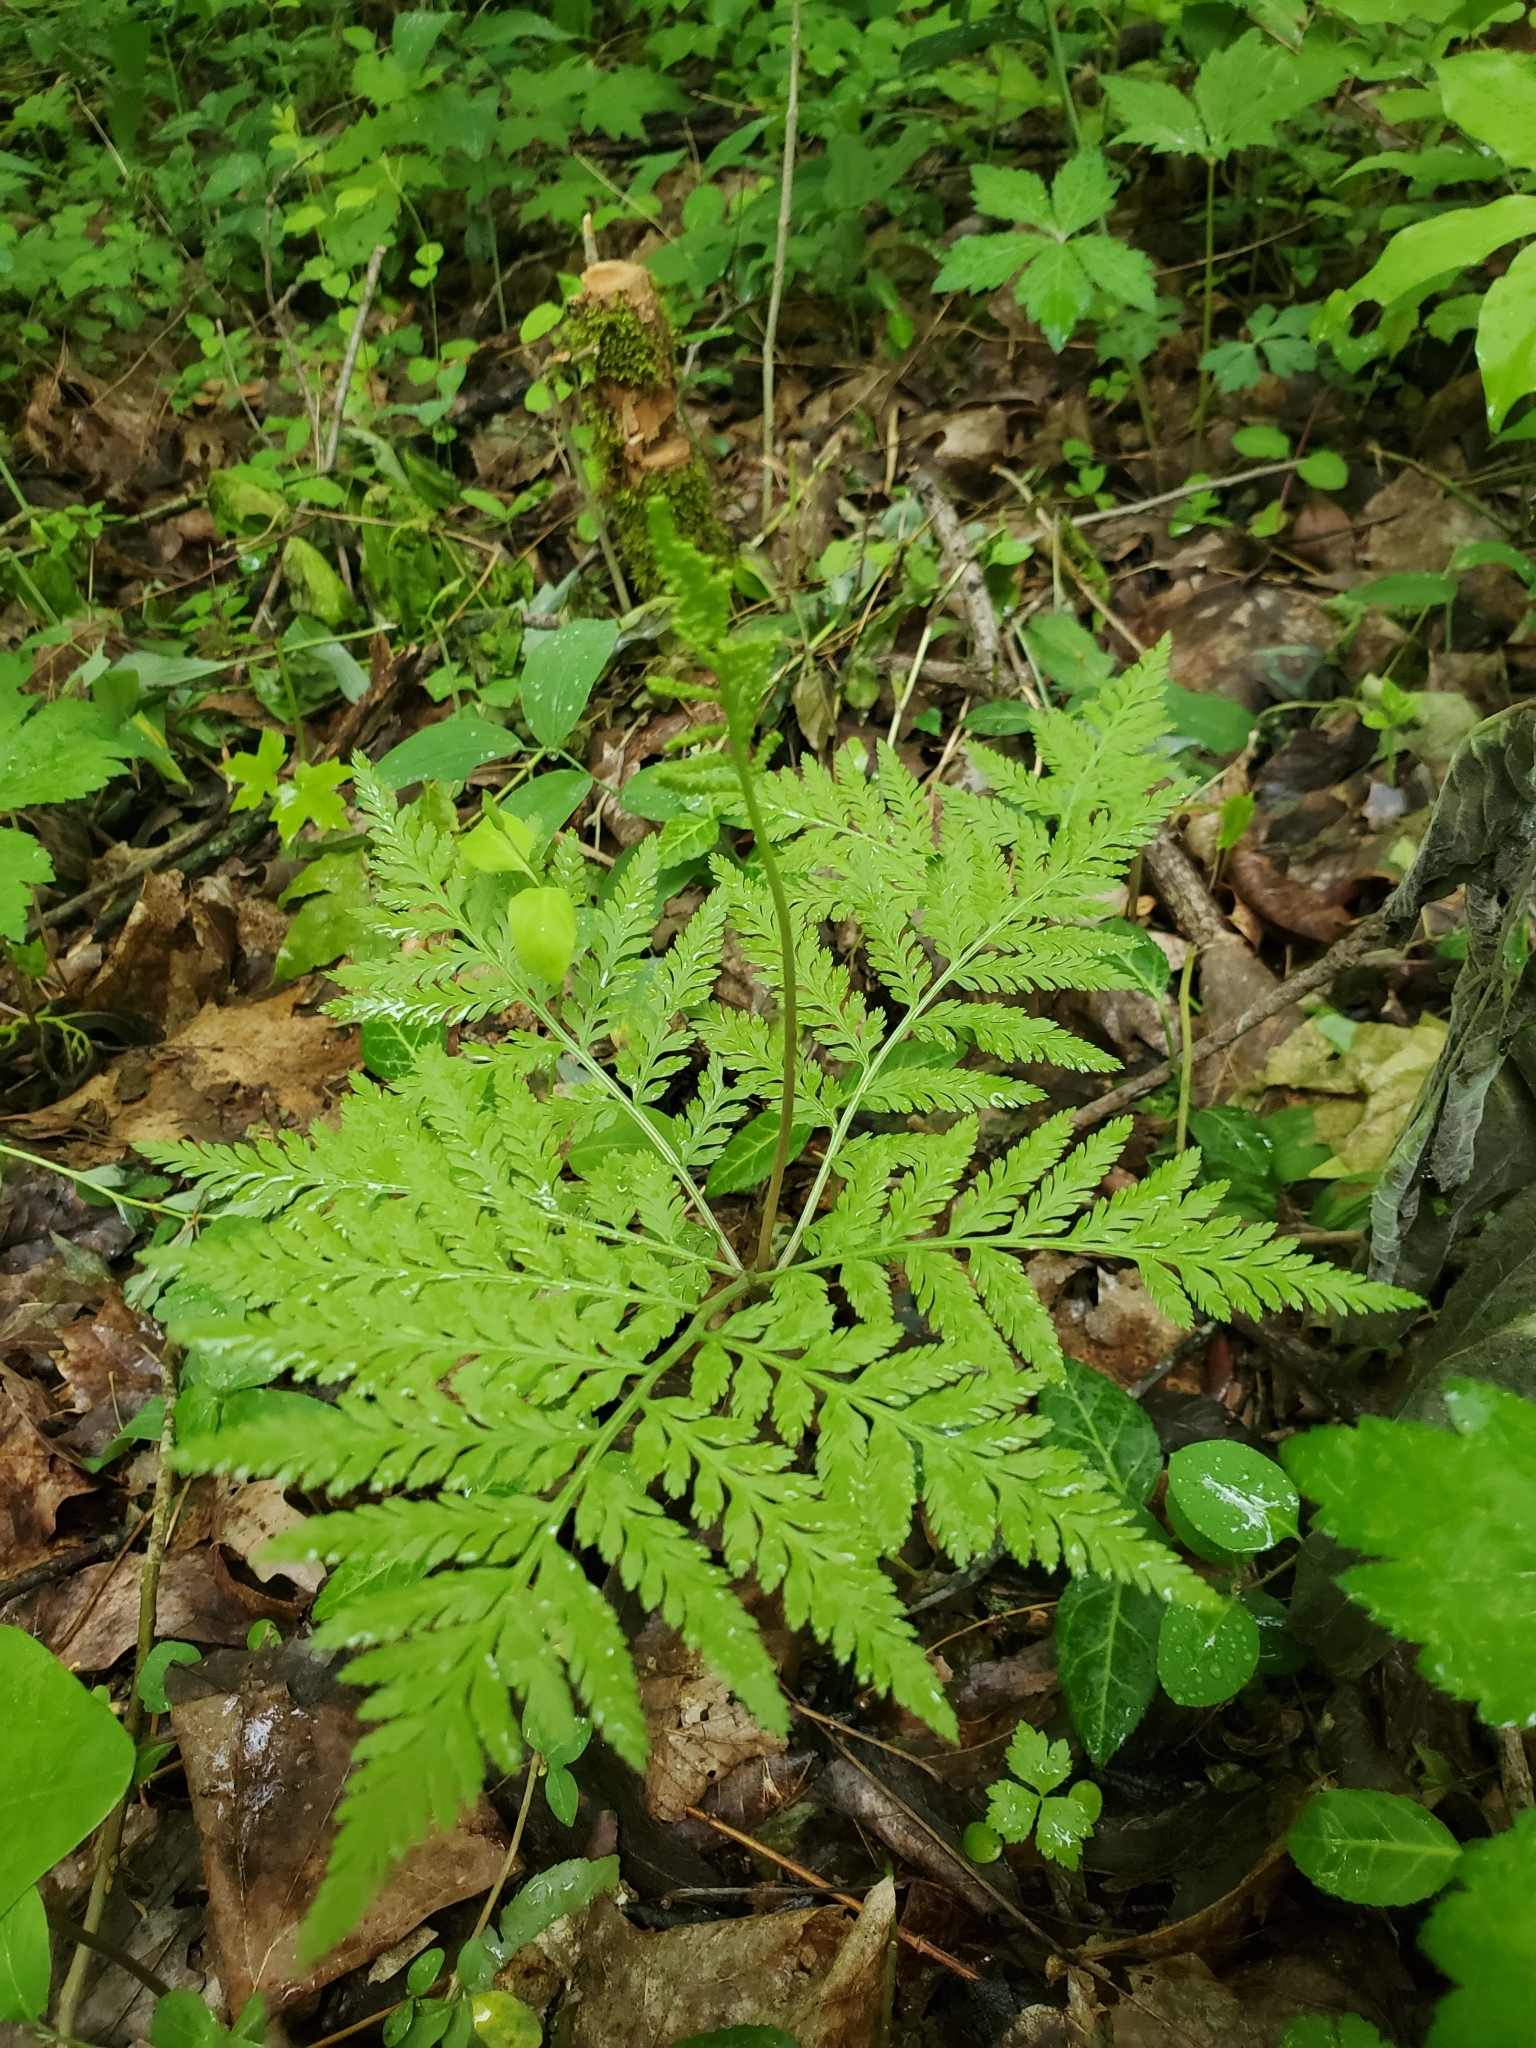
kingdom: Plantae
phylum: Tracheophyta
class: Polypodiopsida
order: Ophioglossales
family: Ophioglossaceae
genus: Botrypus
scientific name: Botrypus virginianus
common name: Common grapefern
